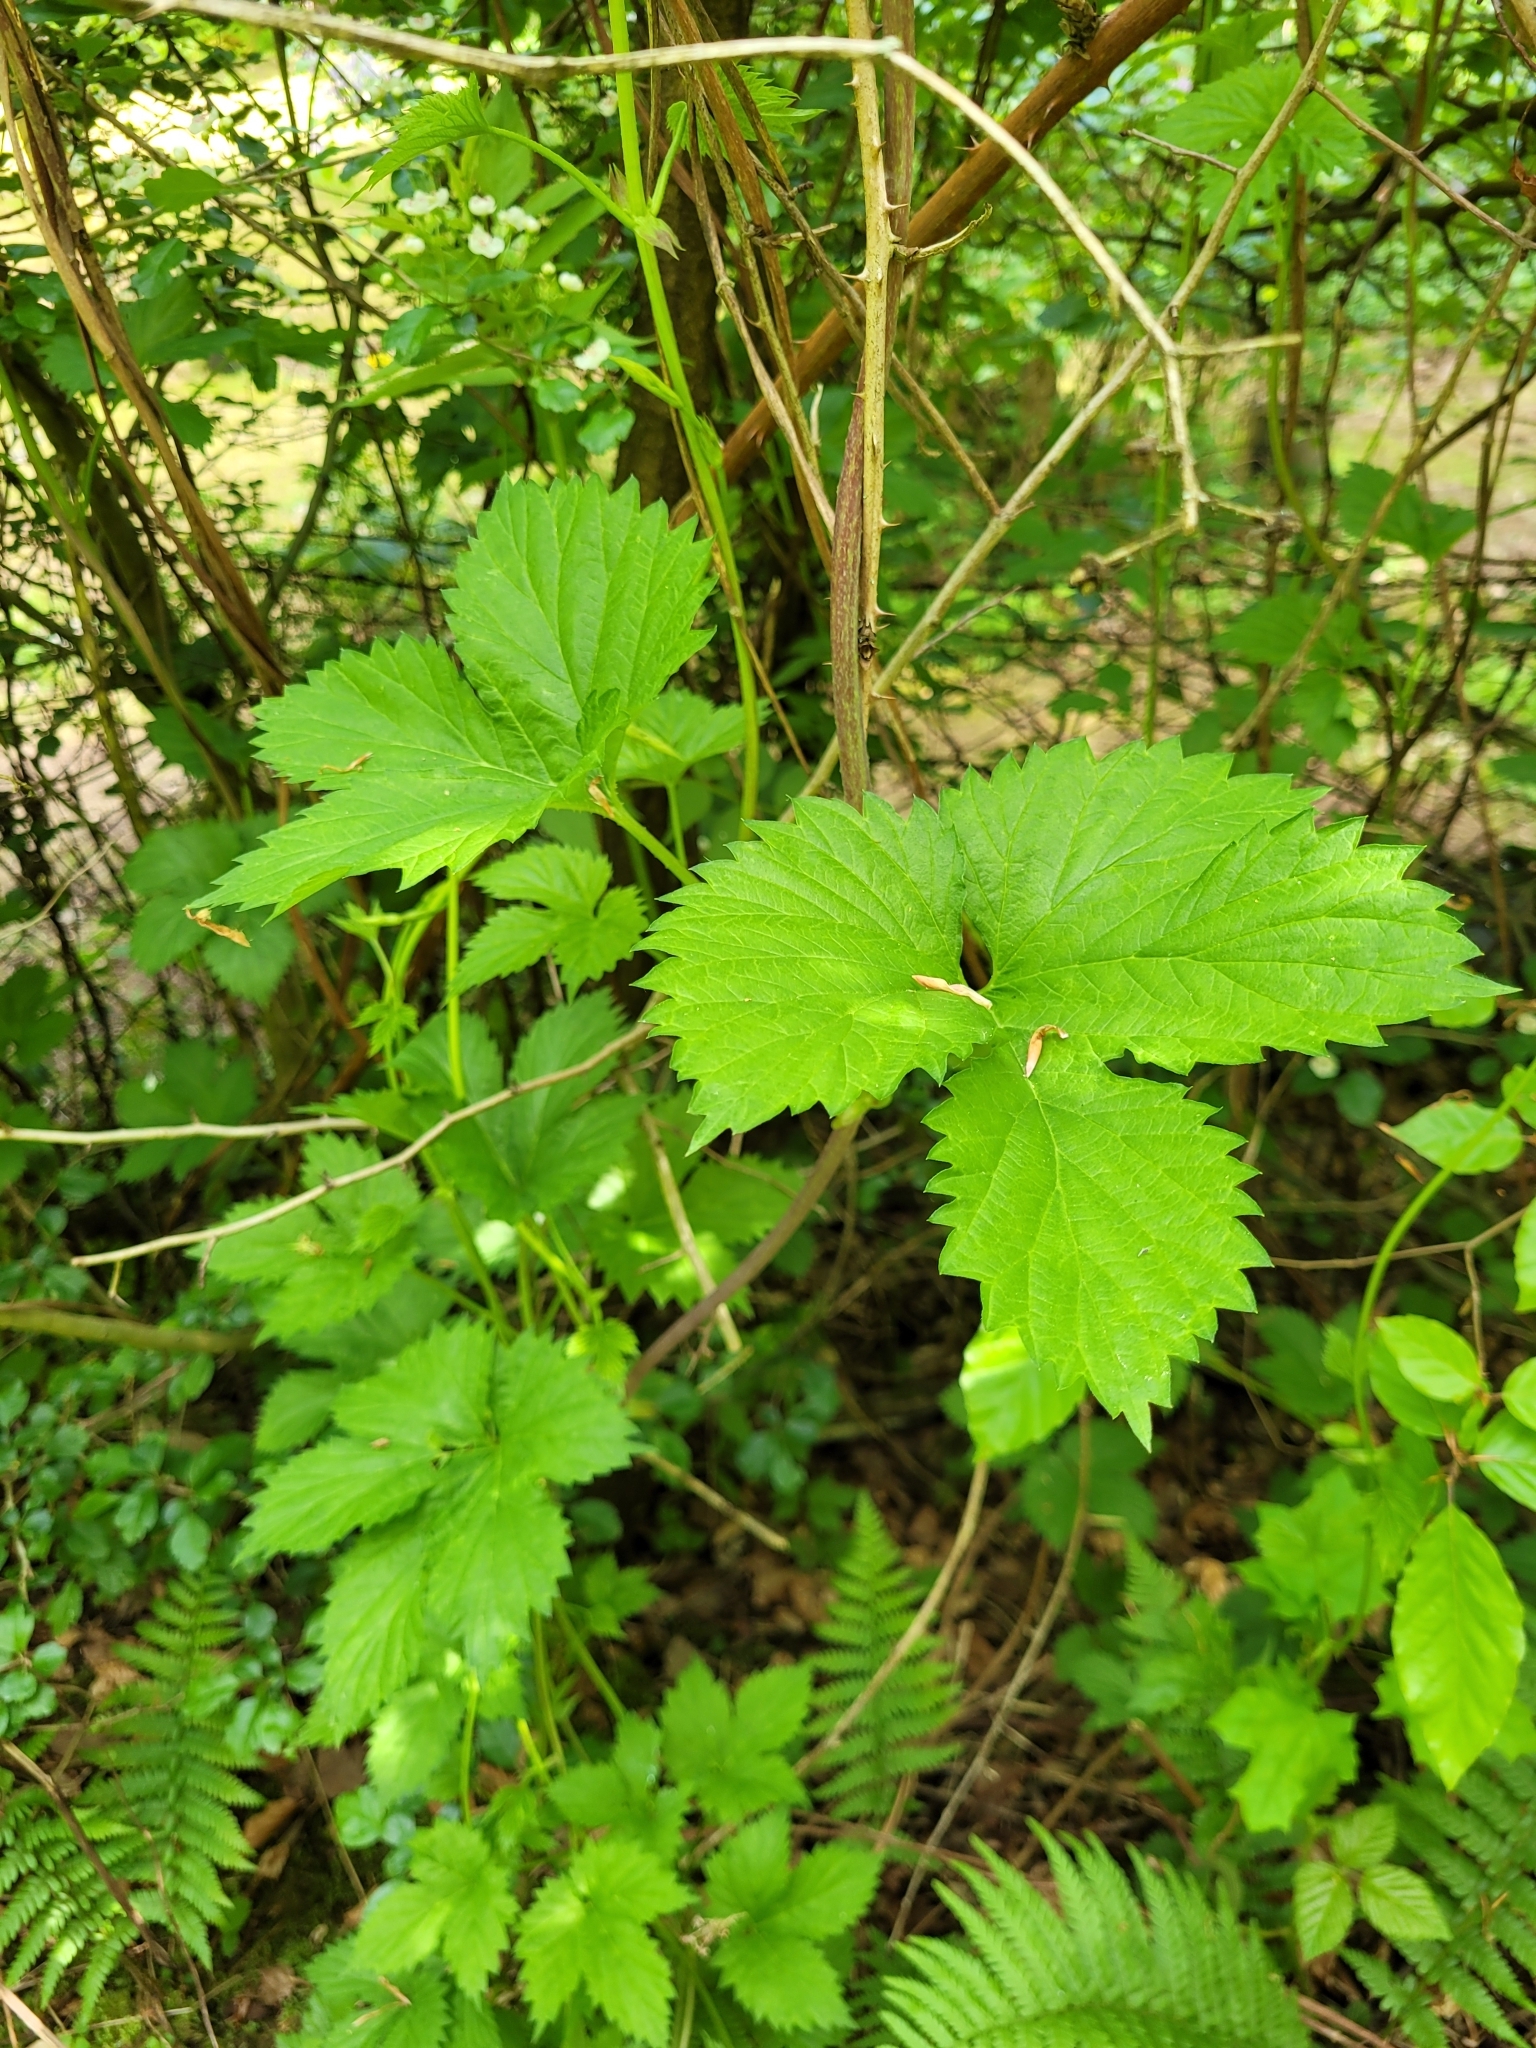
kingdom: Plantae
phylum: Tracheophyta
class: Magnoliopsida
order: Rosales
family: Cannabaceae
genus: Humulus
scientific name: Humulus lupulus
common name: Hop
